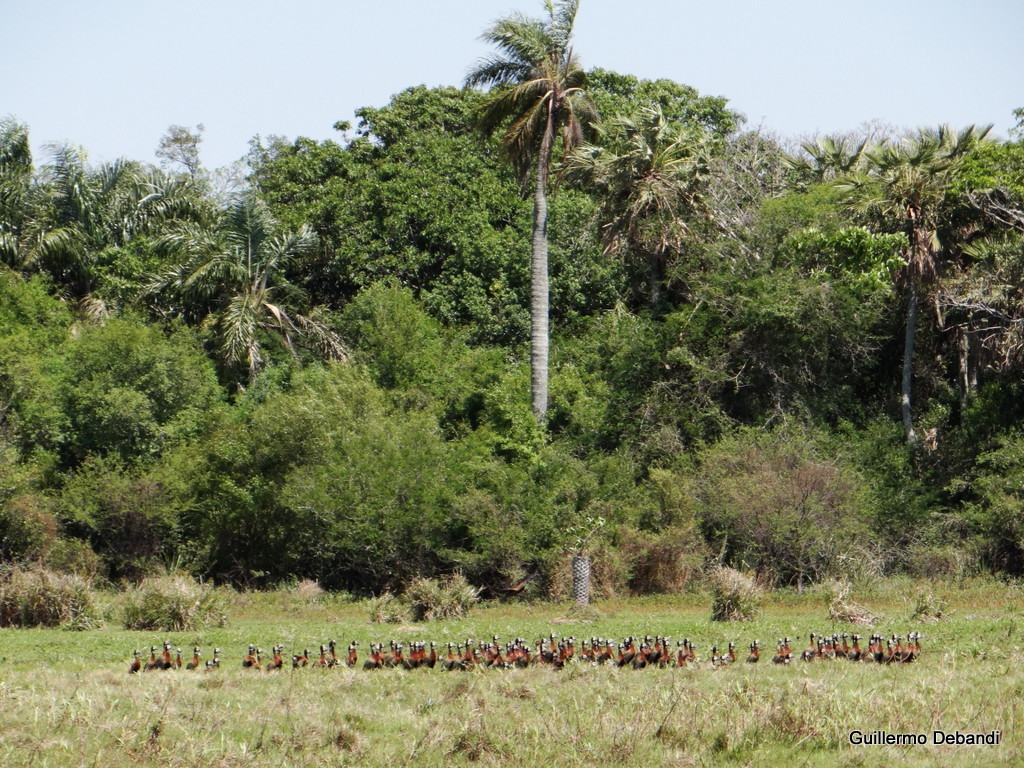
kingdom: Animalia
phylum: Chordata
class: Aves
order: Anseriformes
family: Anatidae
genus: Dendrocygna
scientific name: Dendrocygna viduata
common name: White-faced whistling duck
